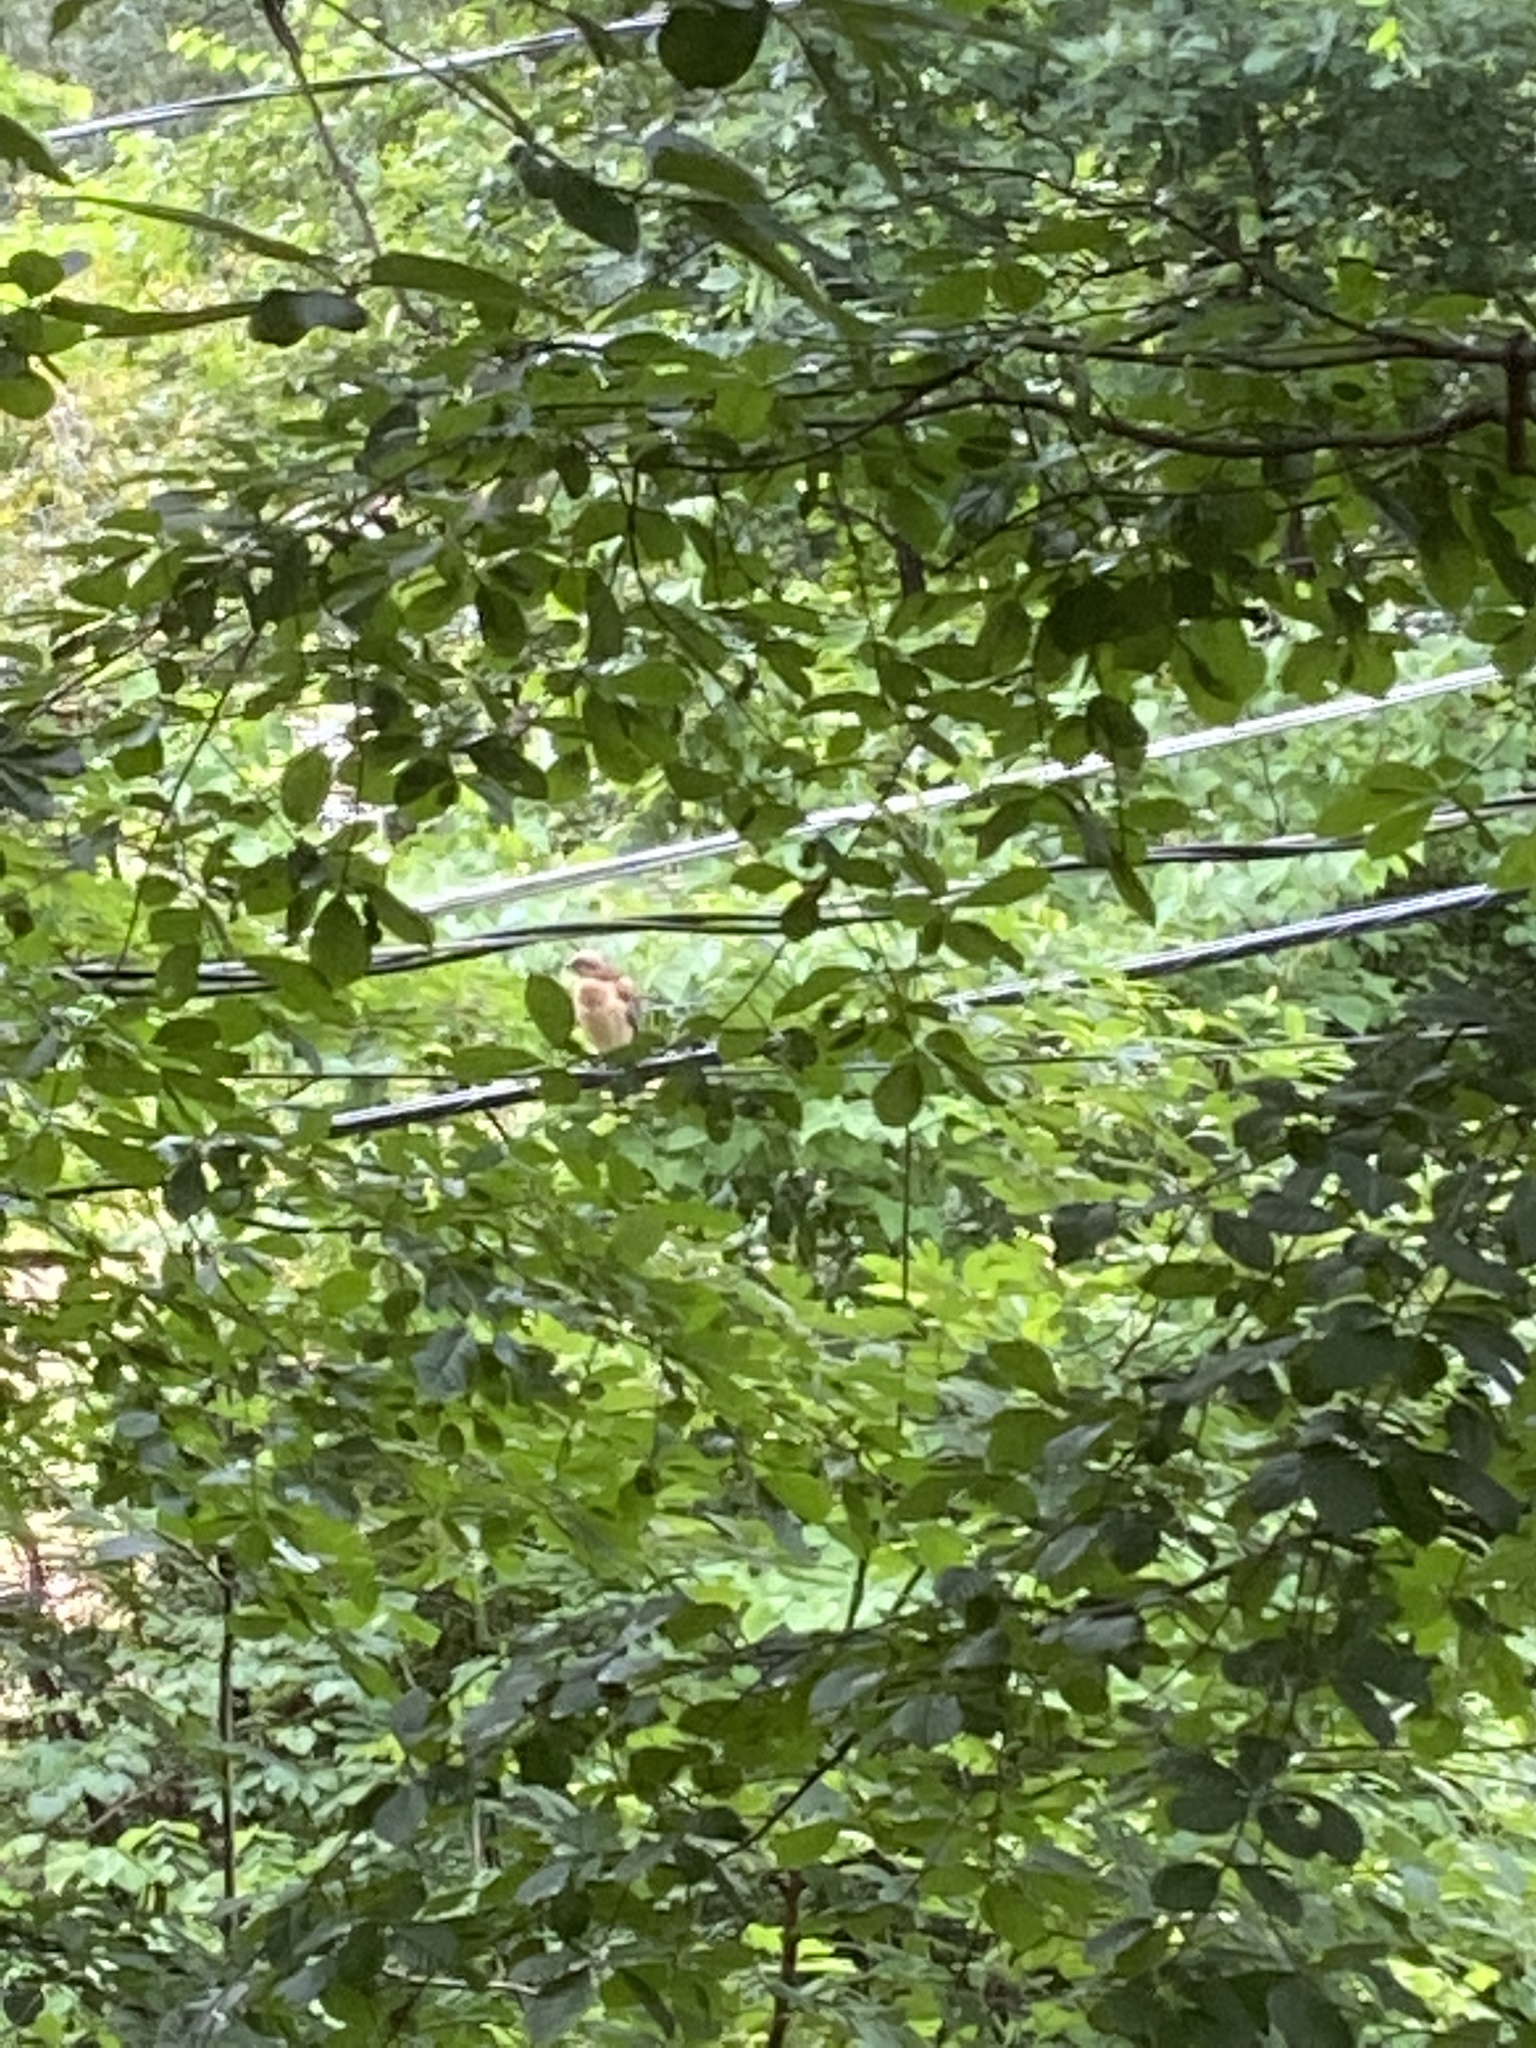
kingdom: Animalia
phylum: Chordata
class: Aves
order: Accipitriformes
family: Accipitridae
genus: Buteo
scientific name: Buteo lineatus
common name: Red-shouldered hawk
